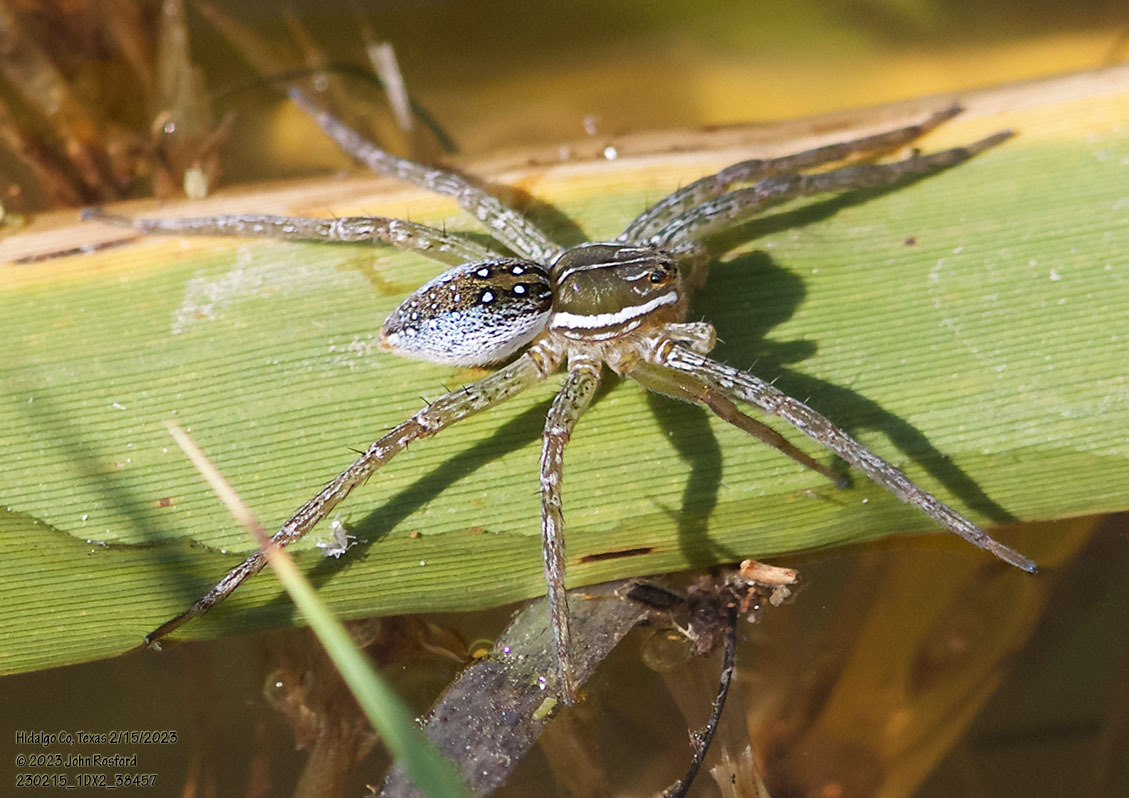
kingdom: Animalia
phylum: Arthropoda
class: Arachnida
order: Araneae
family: Pisauridae
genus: Dolomedes
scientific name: Dolomedes triton
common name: Six-spotted fishing spider
